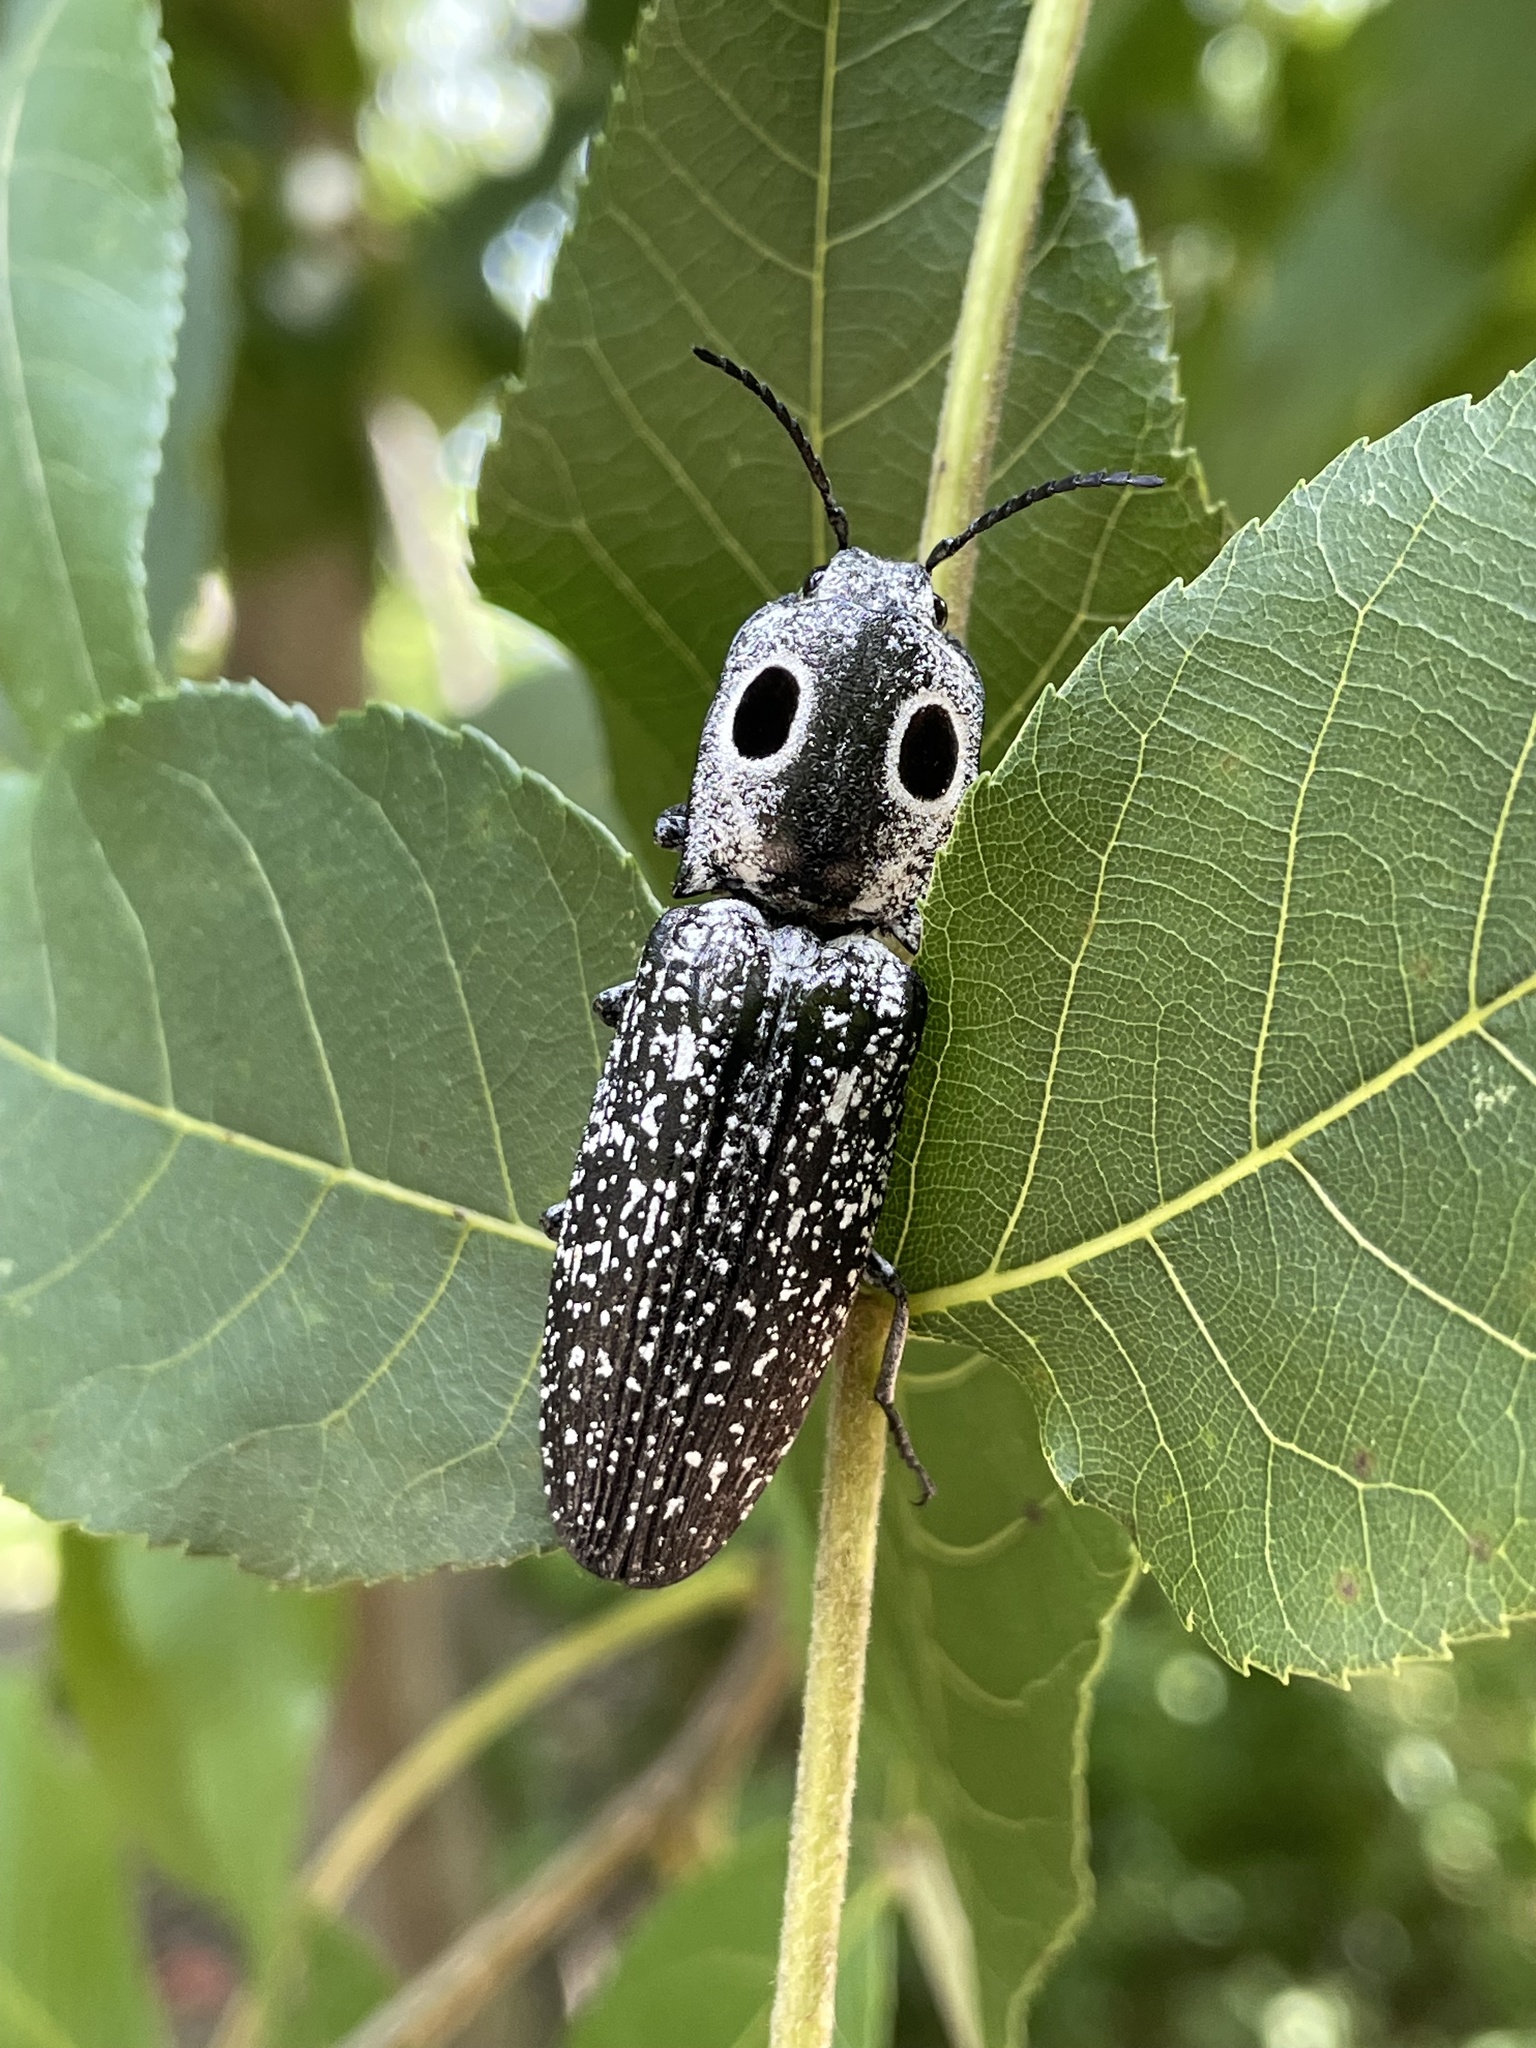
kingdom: Animalia
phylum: Arthropoda
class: Insecta
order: Coleoptera
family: Elateridae
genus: Alaus
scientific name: Alaus oculatus
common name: Eastern eyed click beetle
